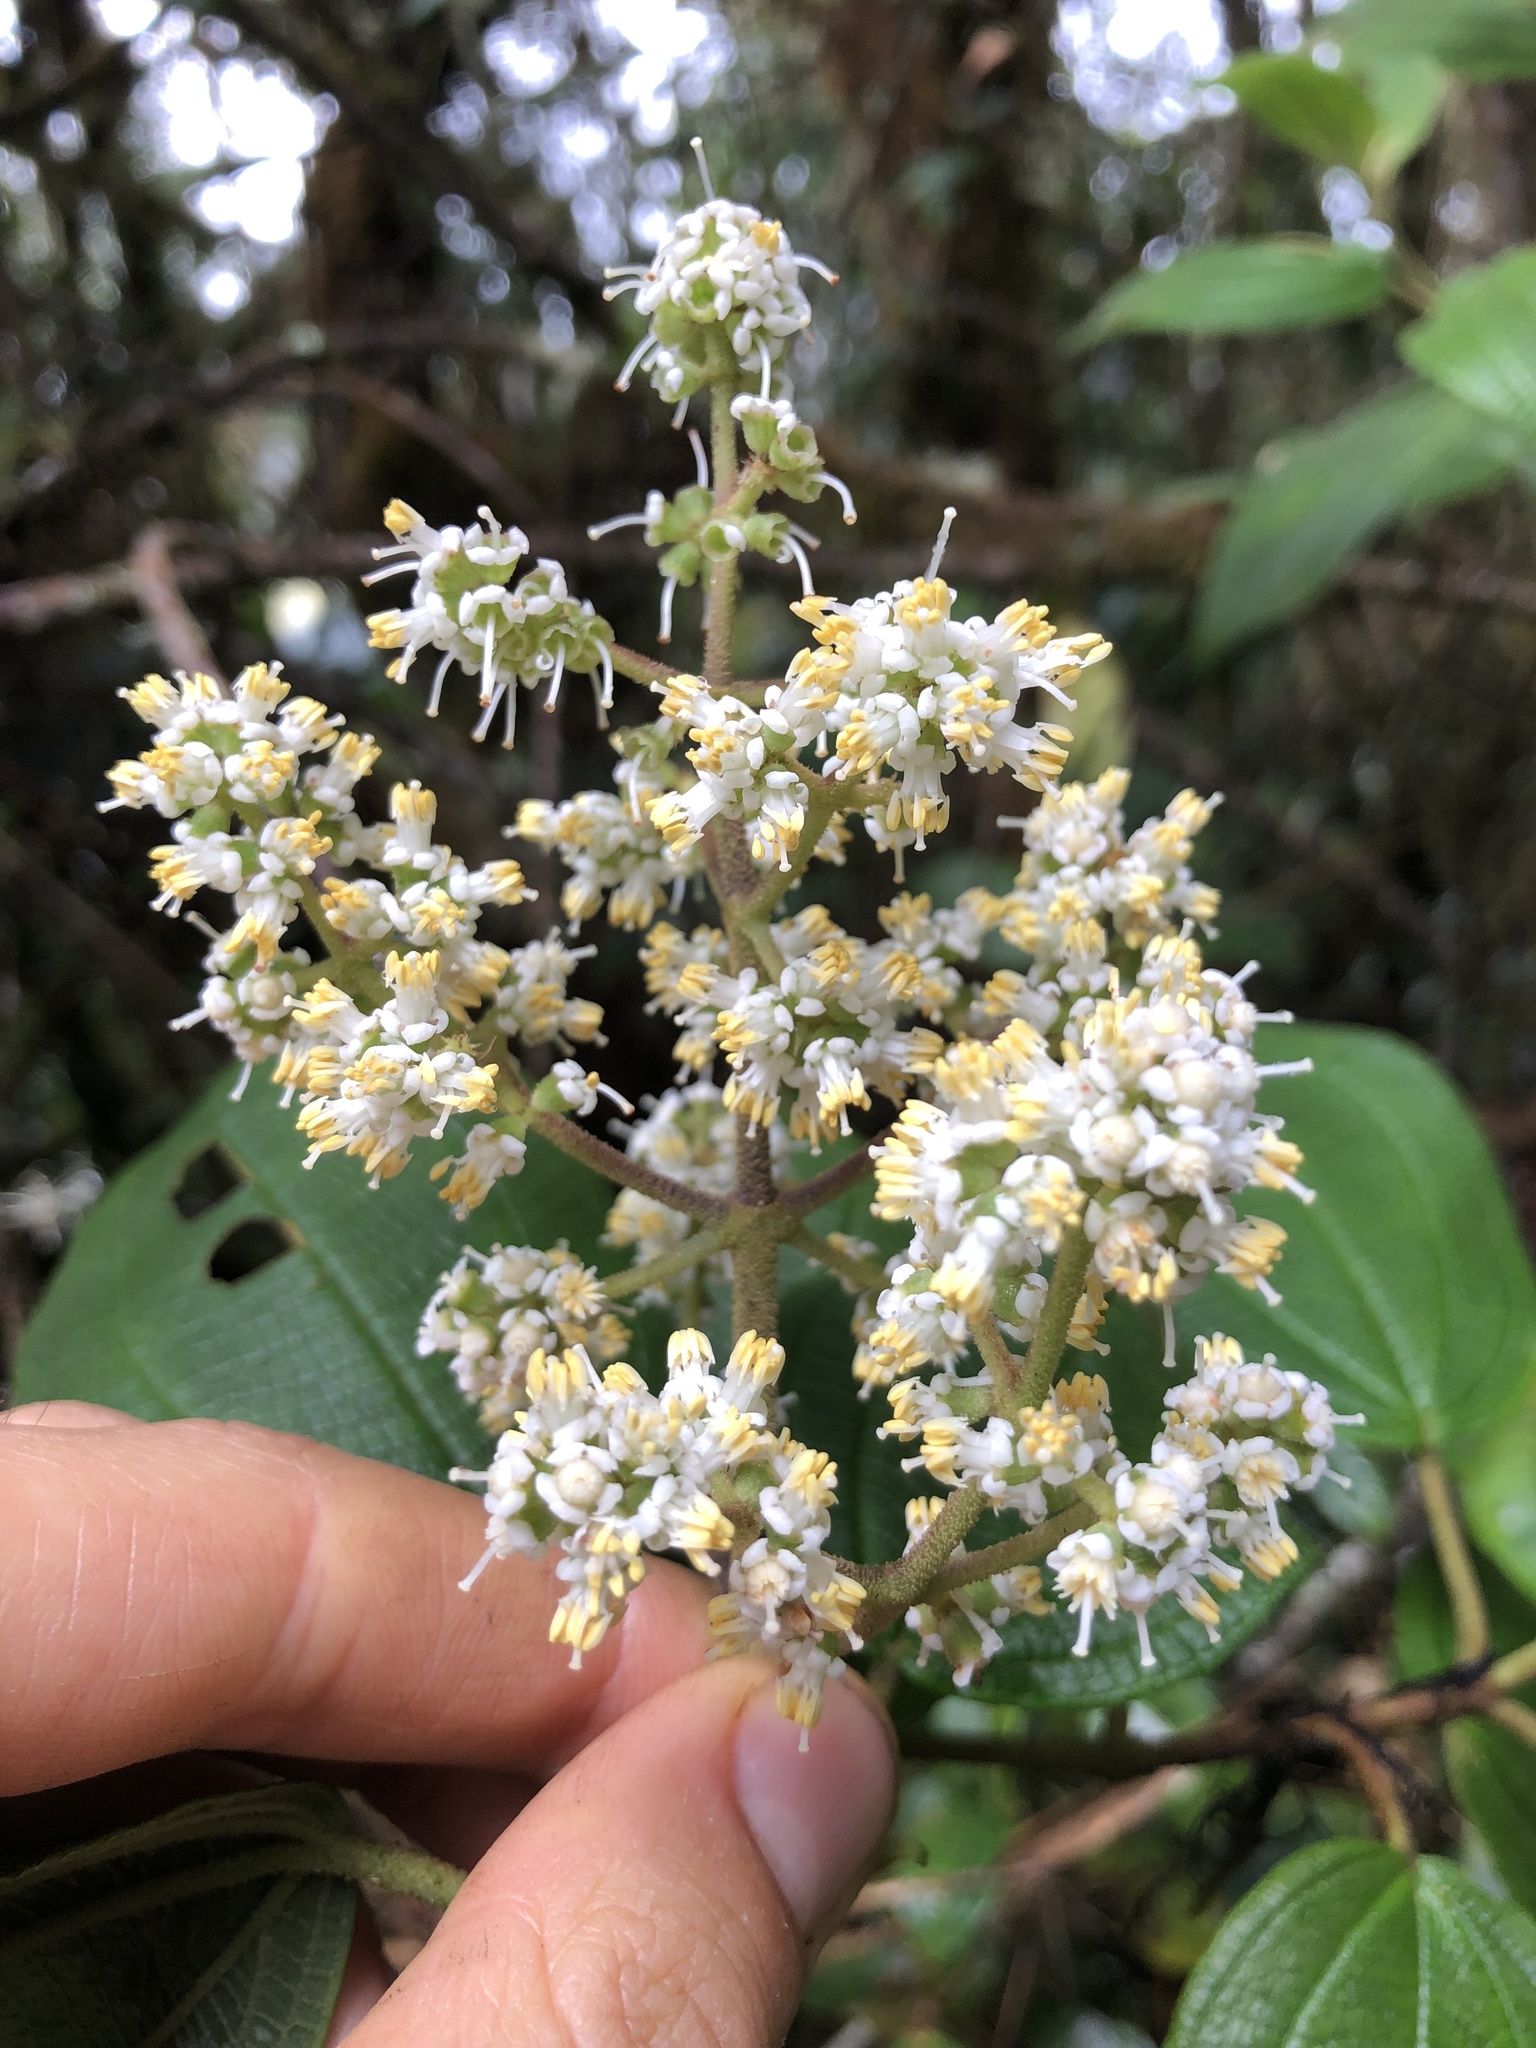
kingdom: Plantae
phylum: Tracheophyta
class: Magnoliopsida
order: Myrtales
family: Melastomataceae
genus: Miconia
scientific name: Miconia psychrophila
